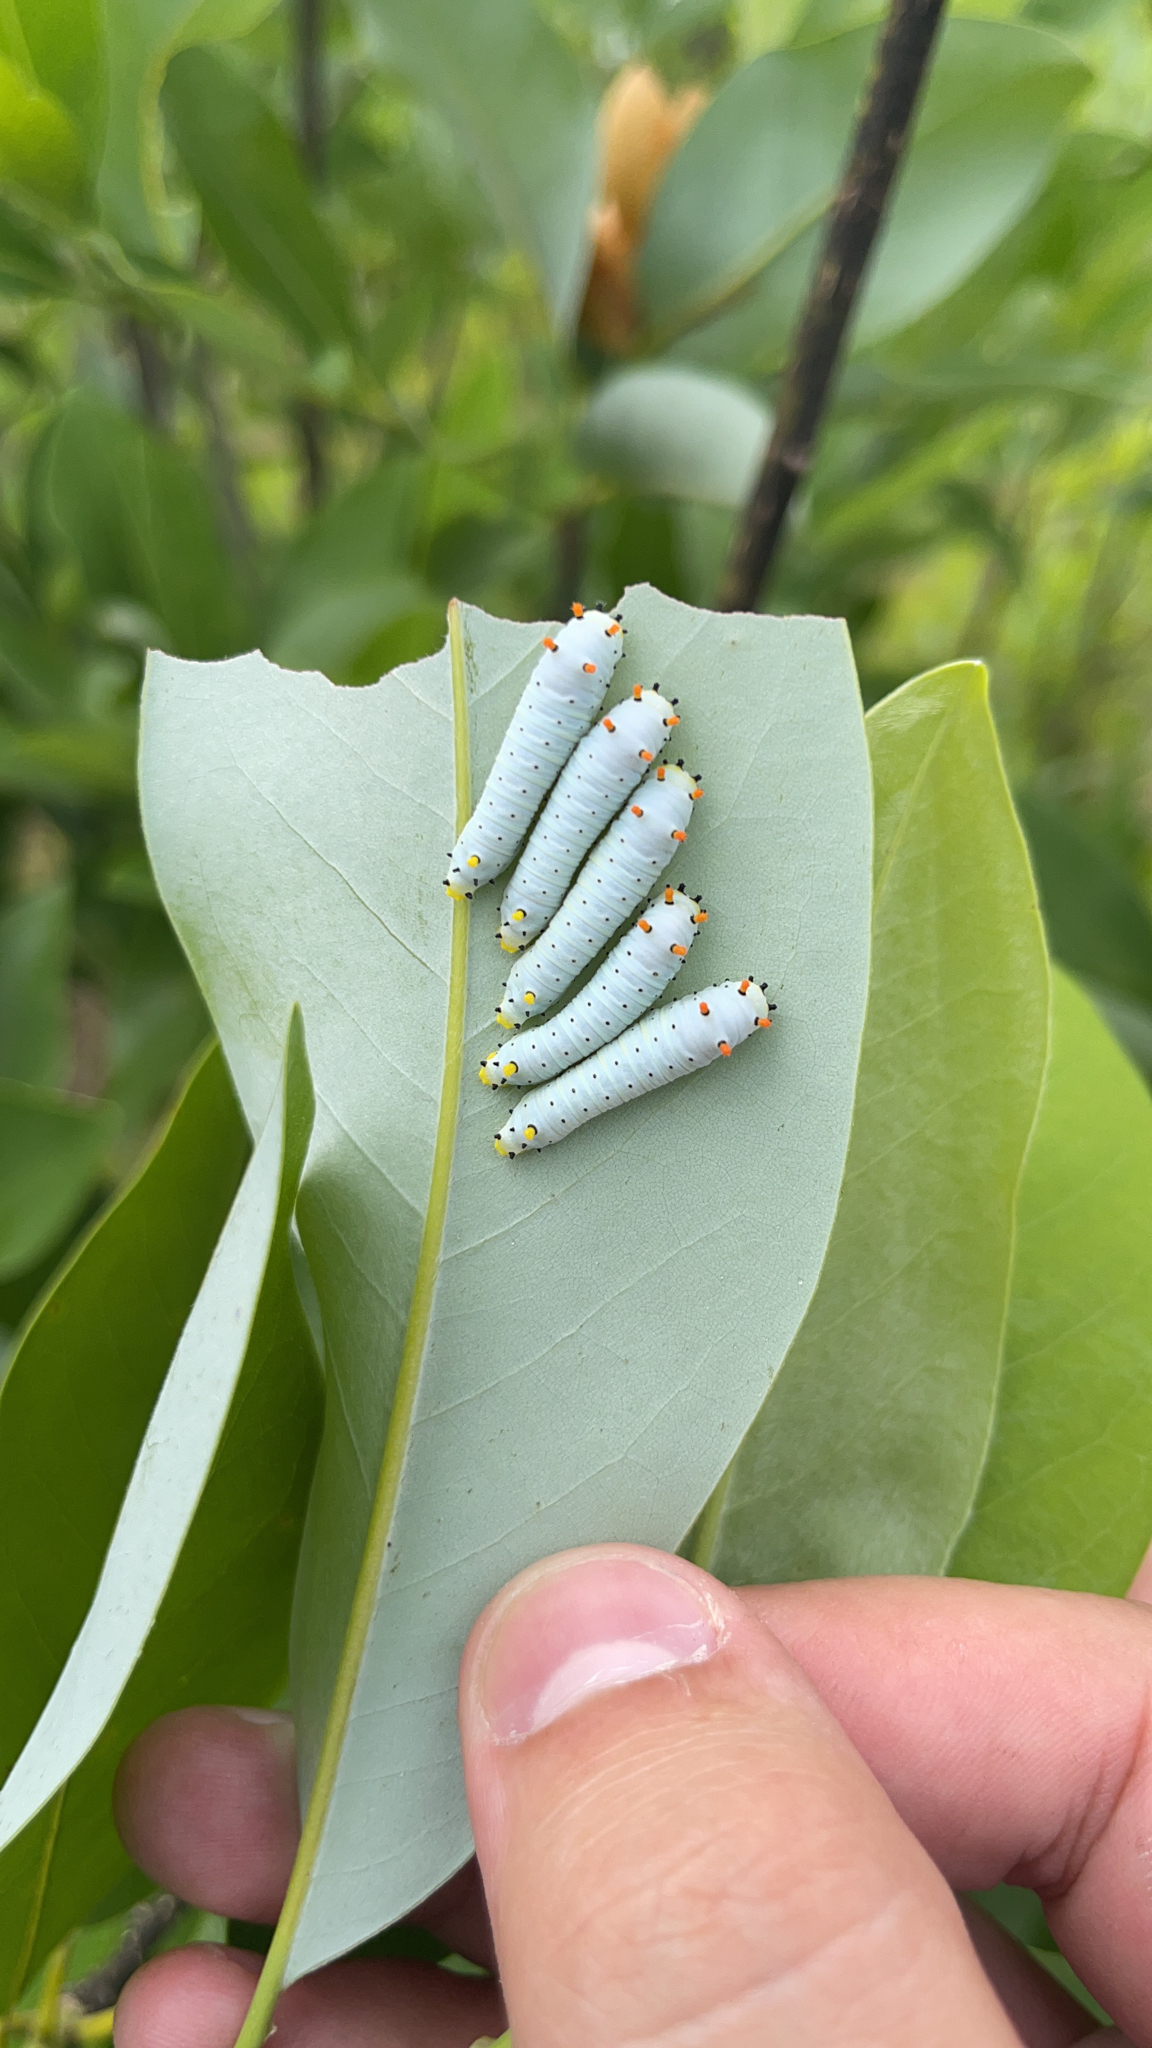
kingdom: Animalia
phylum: Arthropoda
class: Insecta
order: Lepidoptera
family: Saturniidae
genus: Callosamia
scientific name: Callosamia securifera
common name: Sweetbay silkmoth
